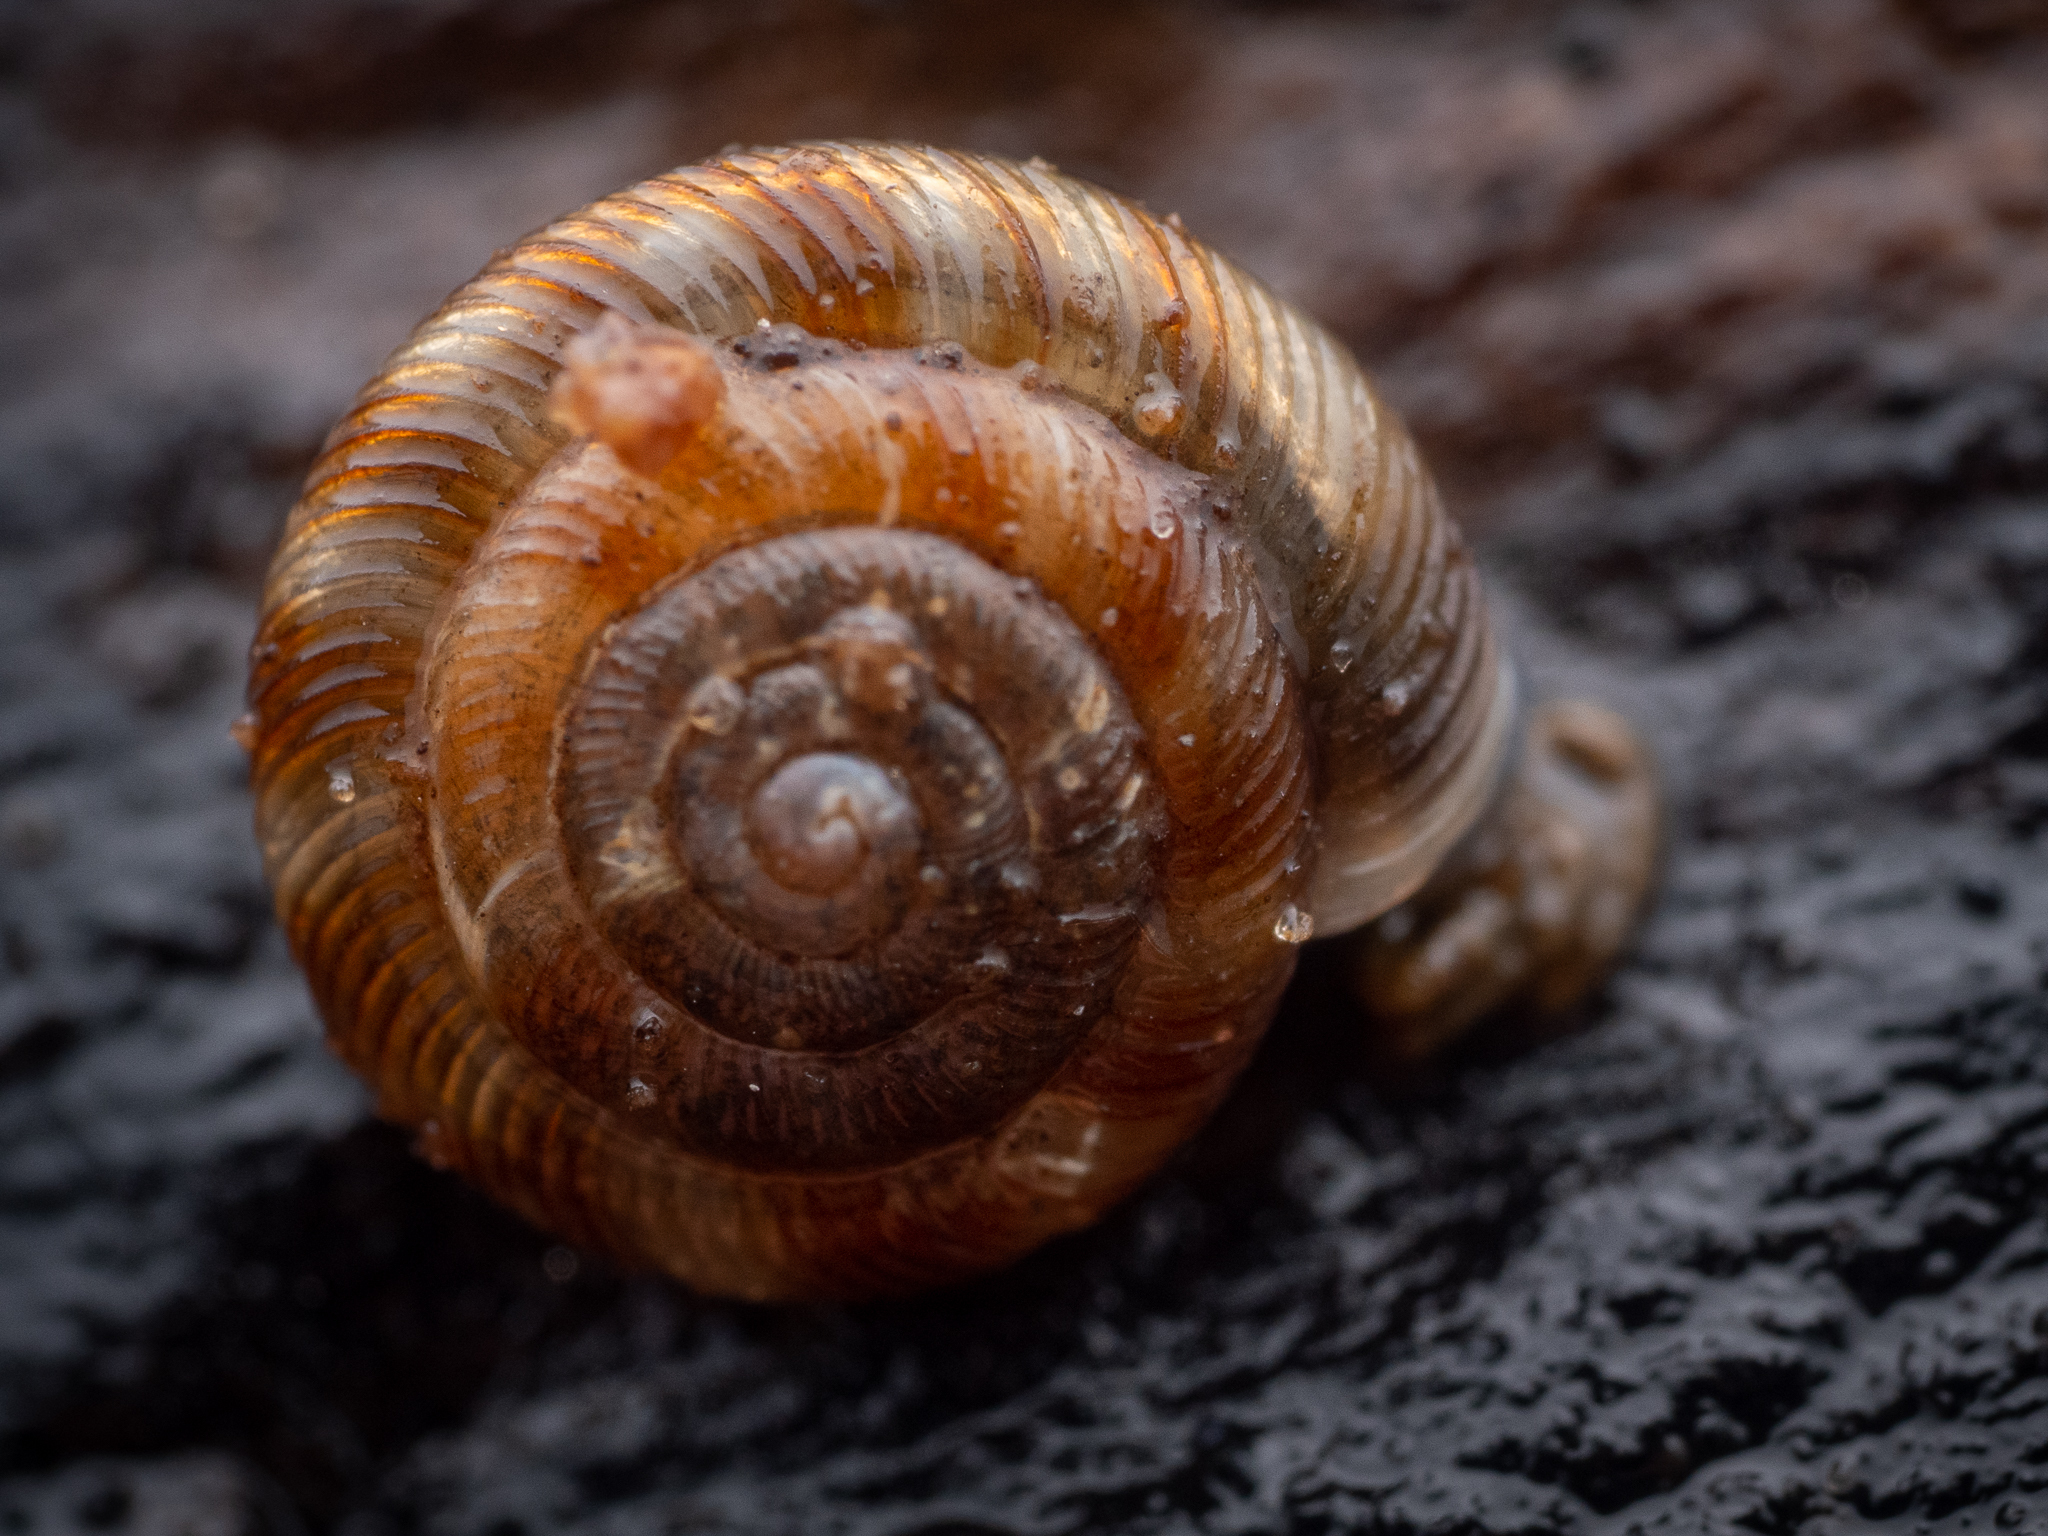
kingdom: Animalia
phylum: Mollusca
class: Gastropoda
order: Stylommatophora
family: Discidae
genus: Discus
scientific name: Discus rotundatus
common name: Rounded snail
